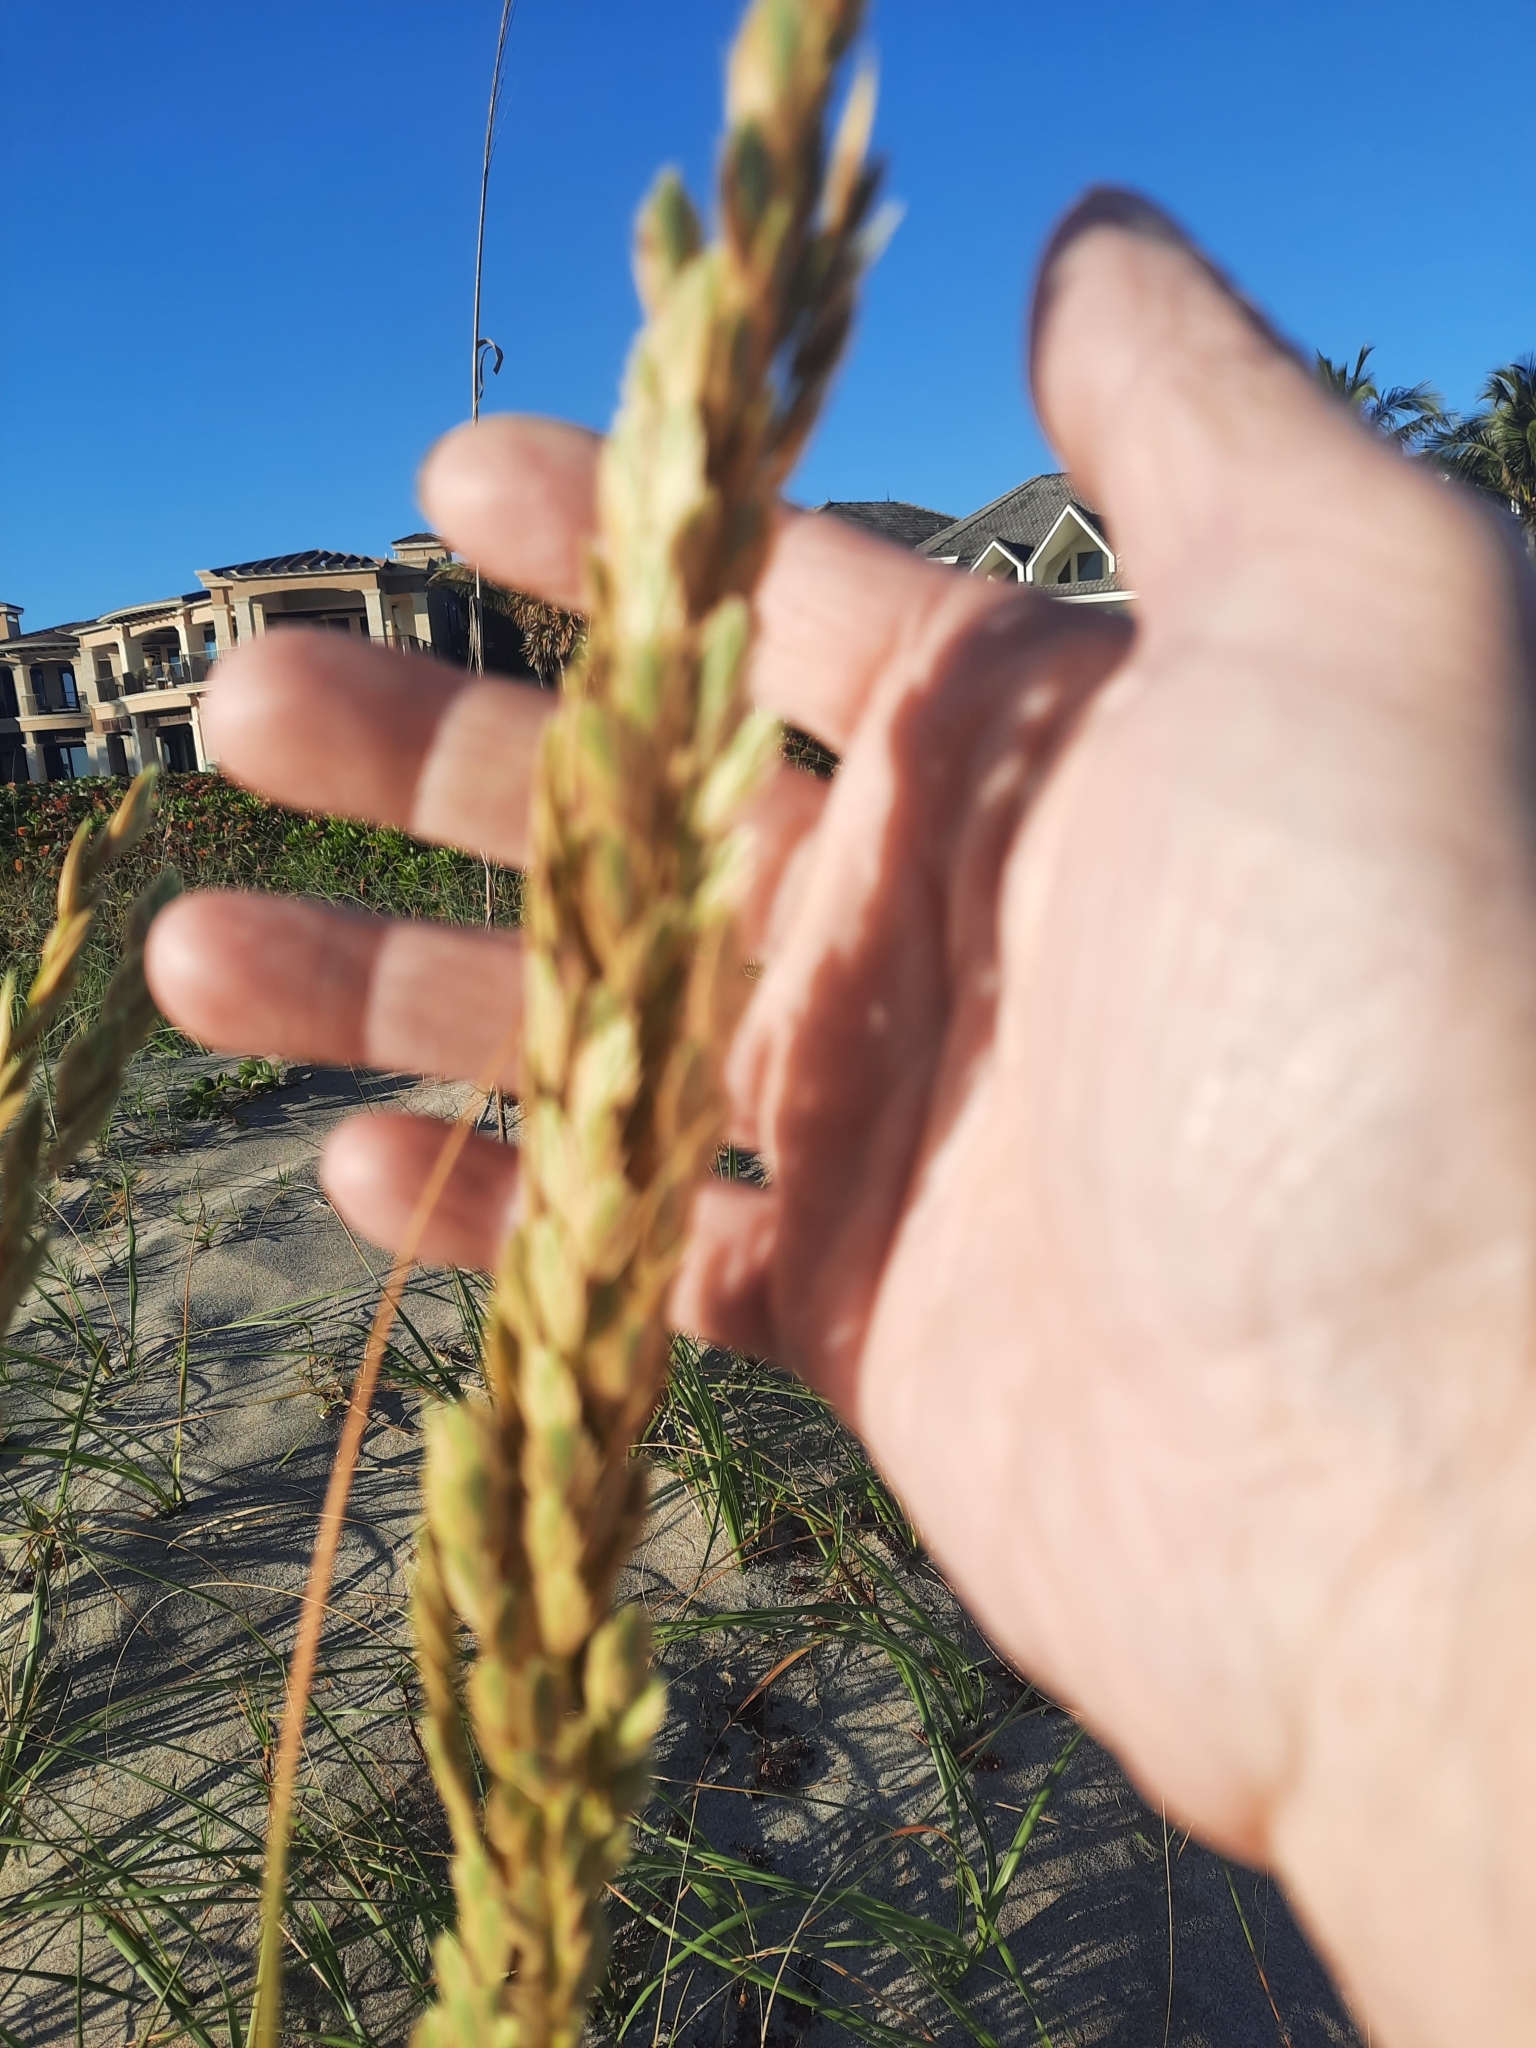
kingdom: Plantae
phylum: Tracheophyta
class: Liliopsida
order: Poales
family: Poaceae
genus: Uniola
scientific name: Uniola paniculata
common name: Seaside-oats
